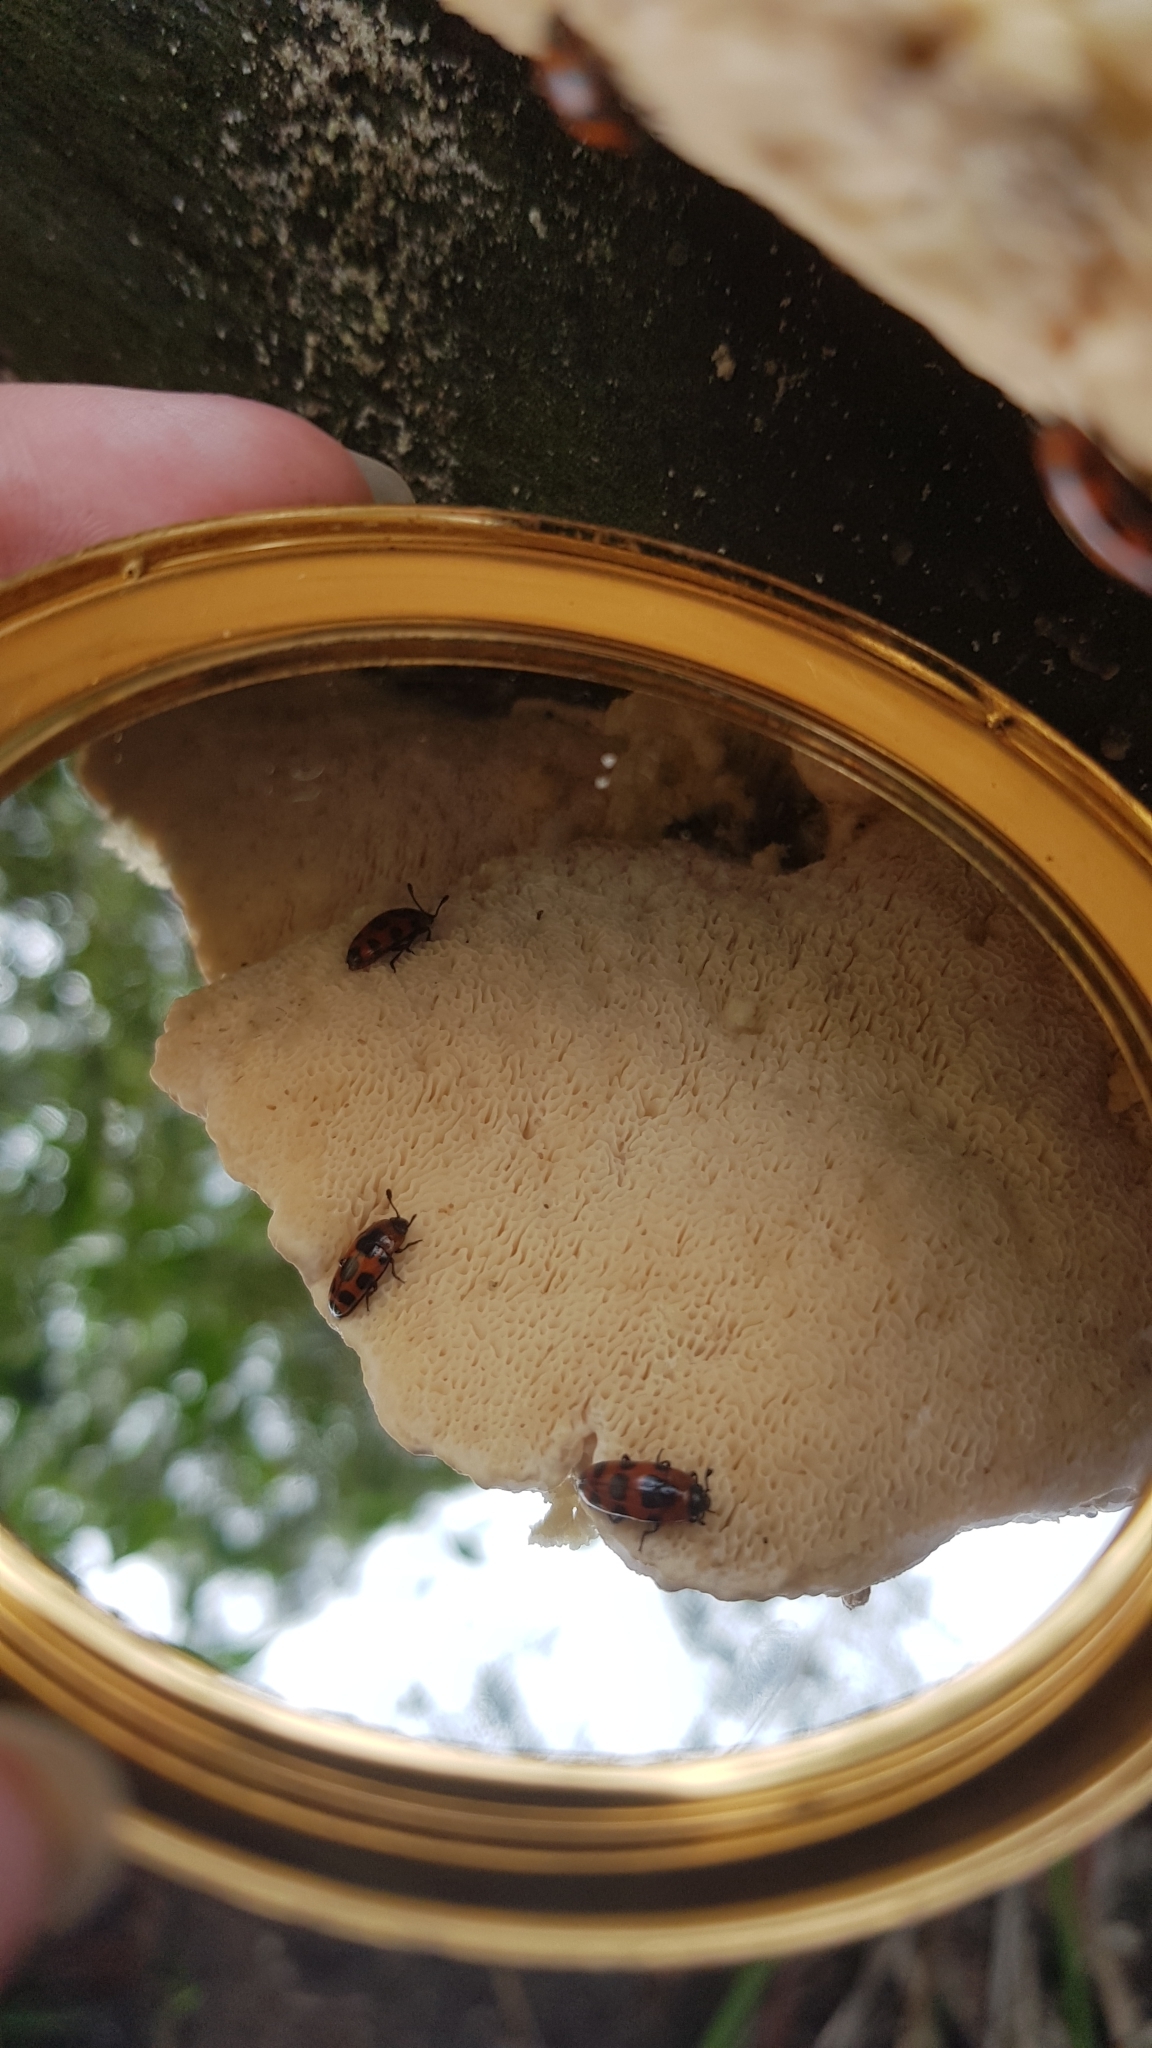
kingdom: Animalia
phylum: Arthropoda
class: Insecta
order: Coleoptera
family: Erotylidae
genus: Episcaphula
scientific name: Episcaphula australis
